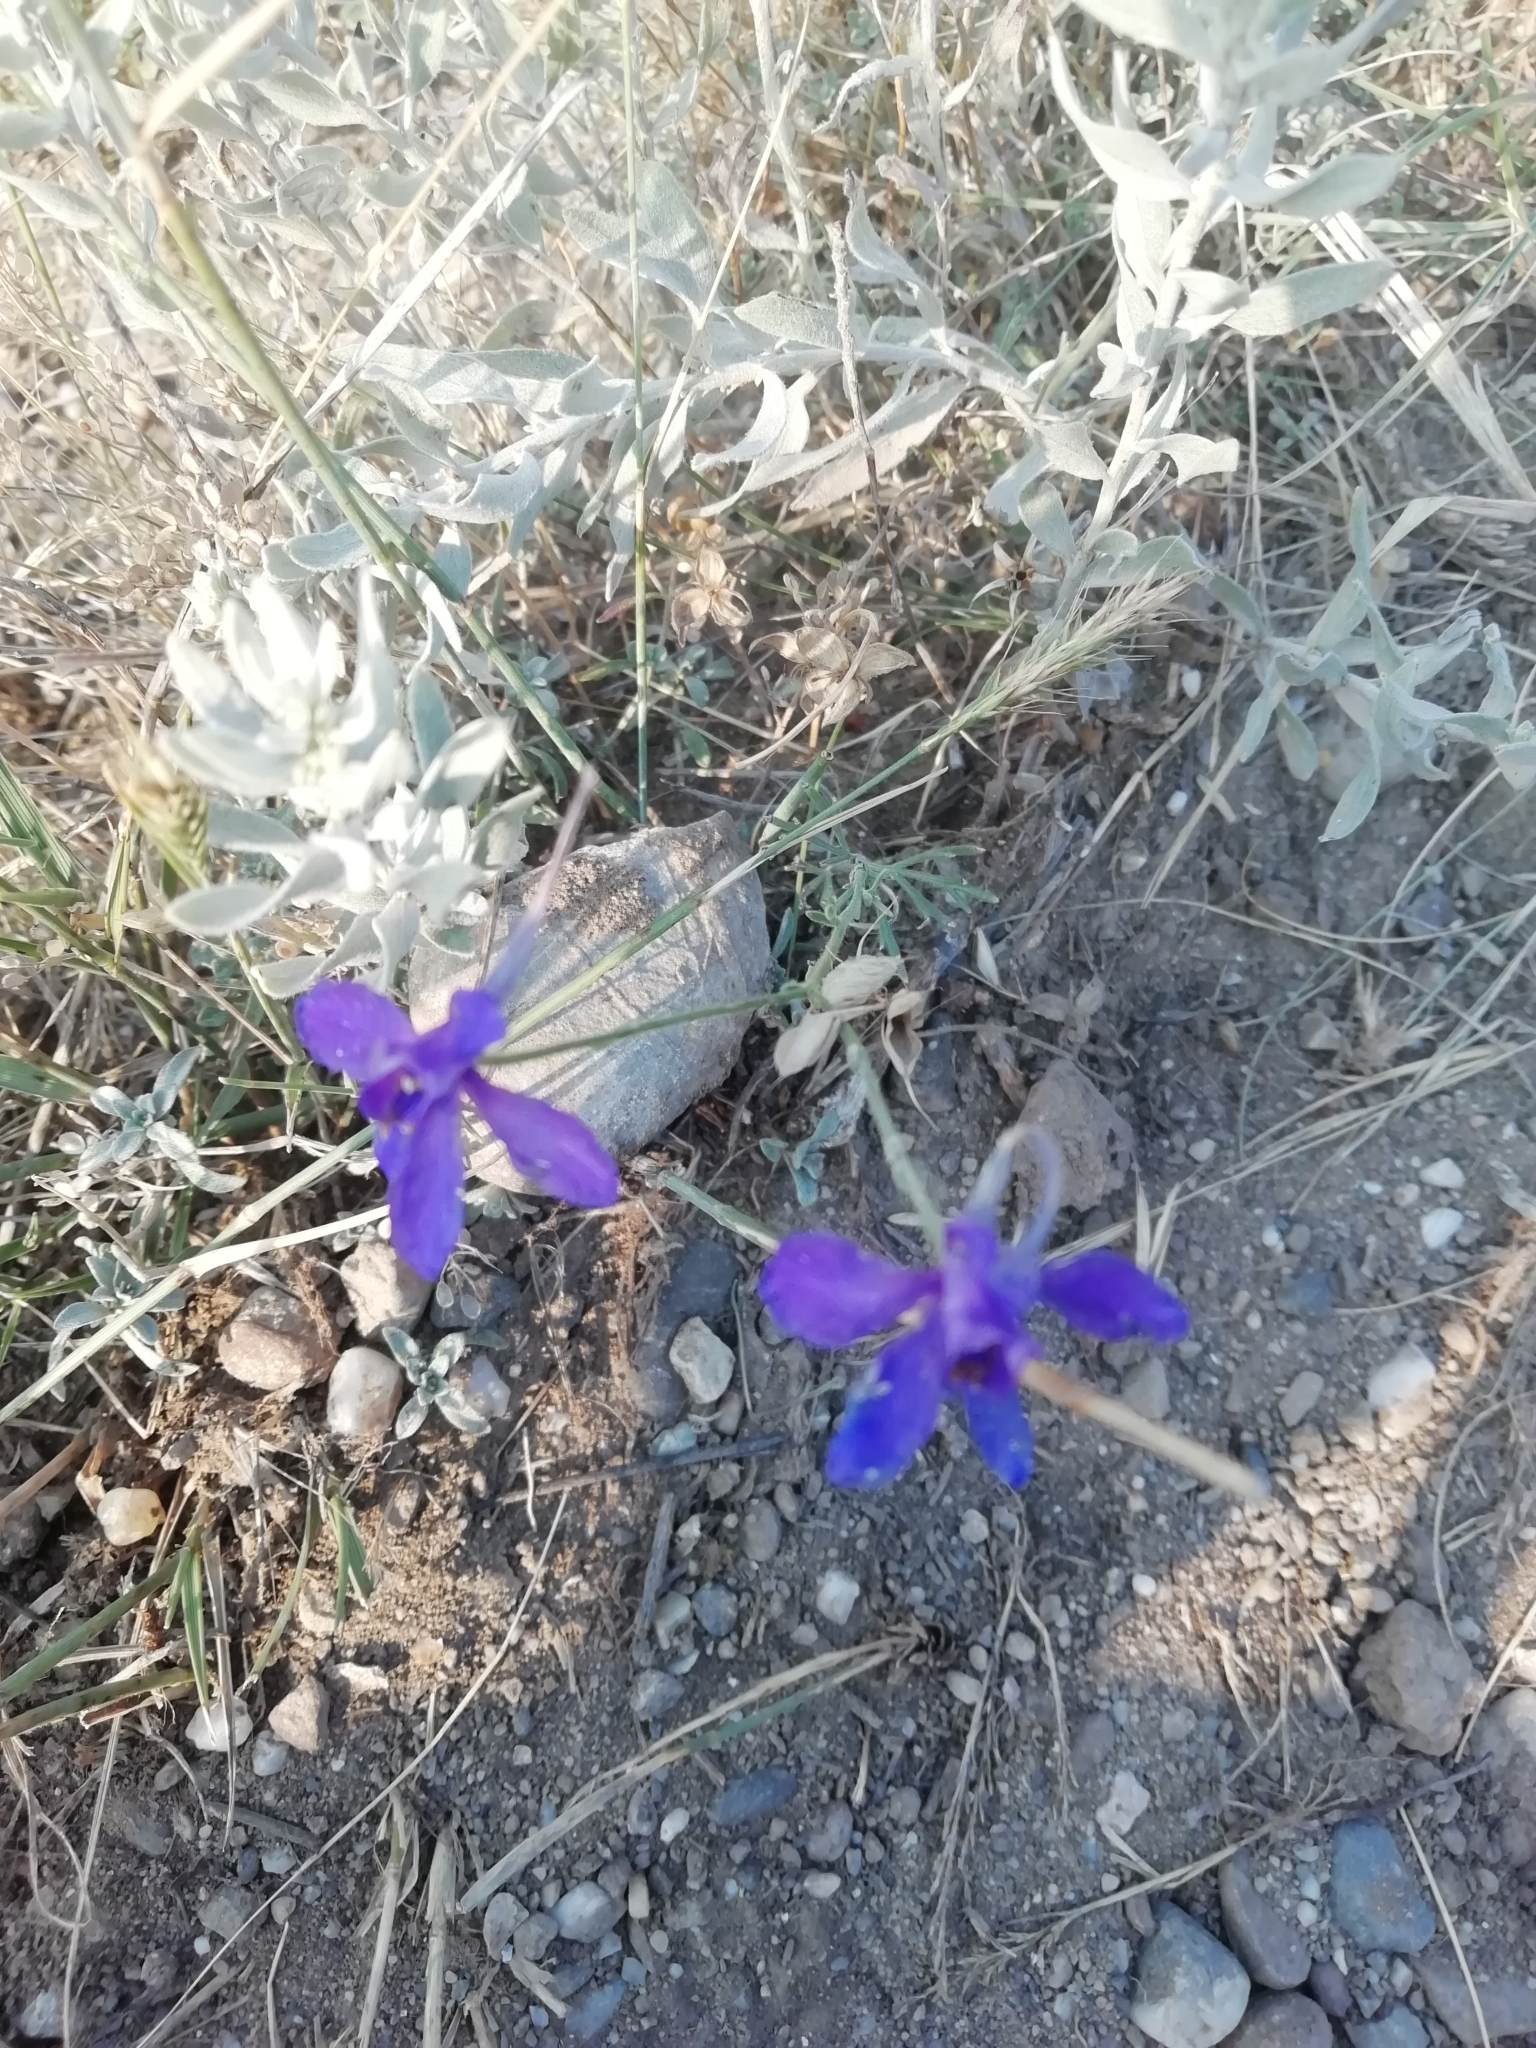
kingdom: Plantae
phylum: Tracheophyta
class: Magnoliopsida
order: Ranunculales
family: Ranunculaceae
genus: Delphinium
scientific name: Delphinium consolida
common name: Branching larkspur
